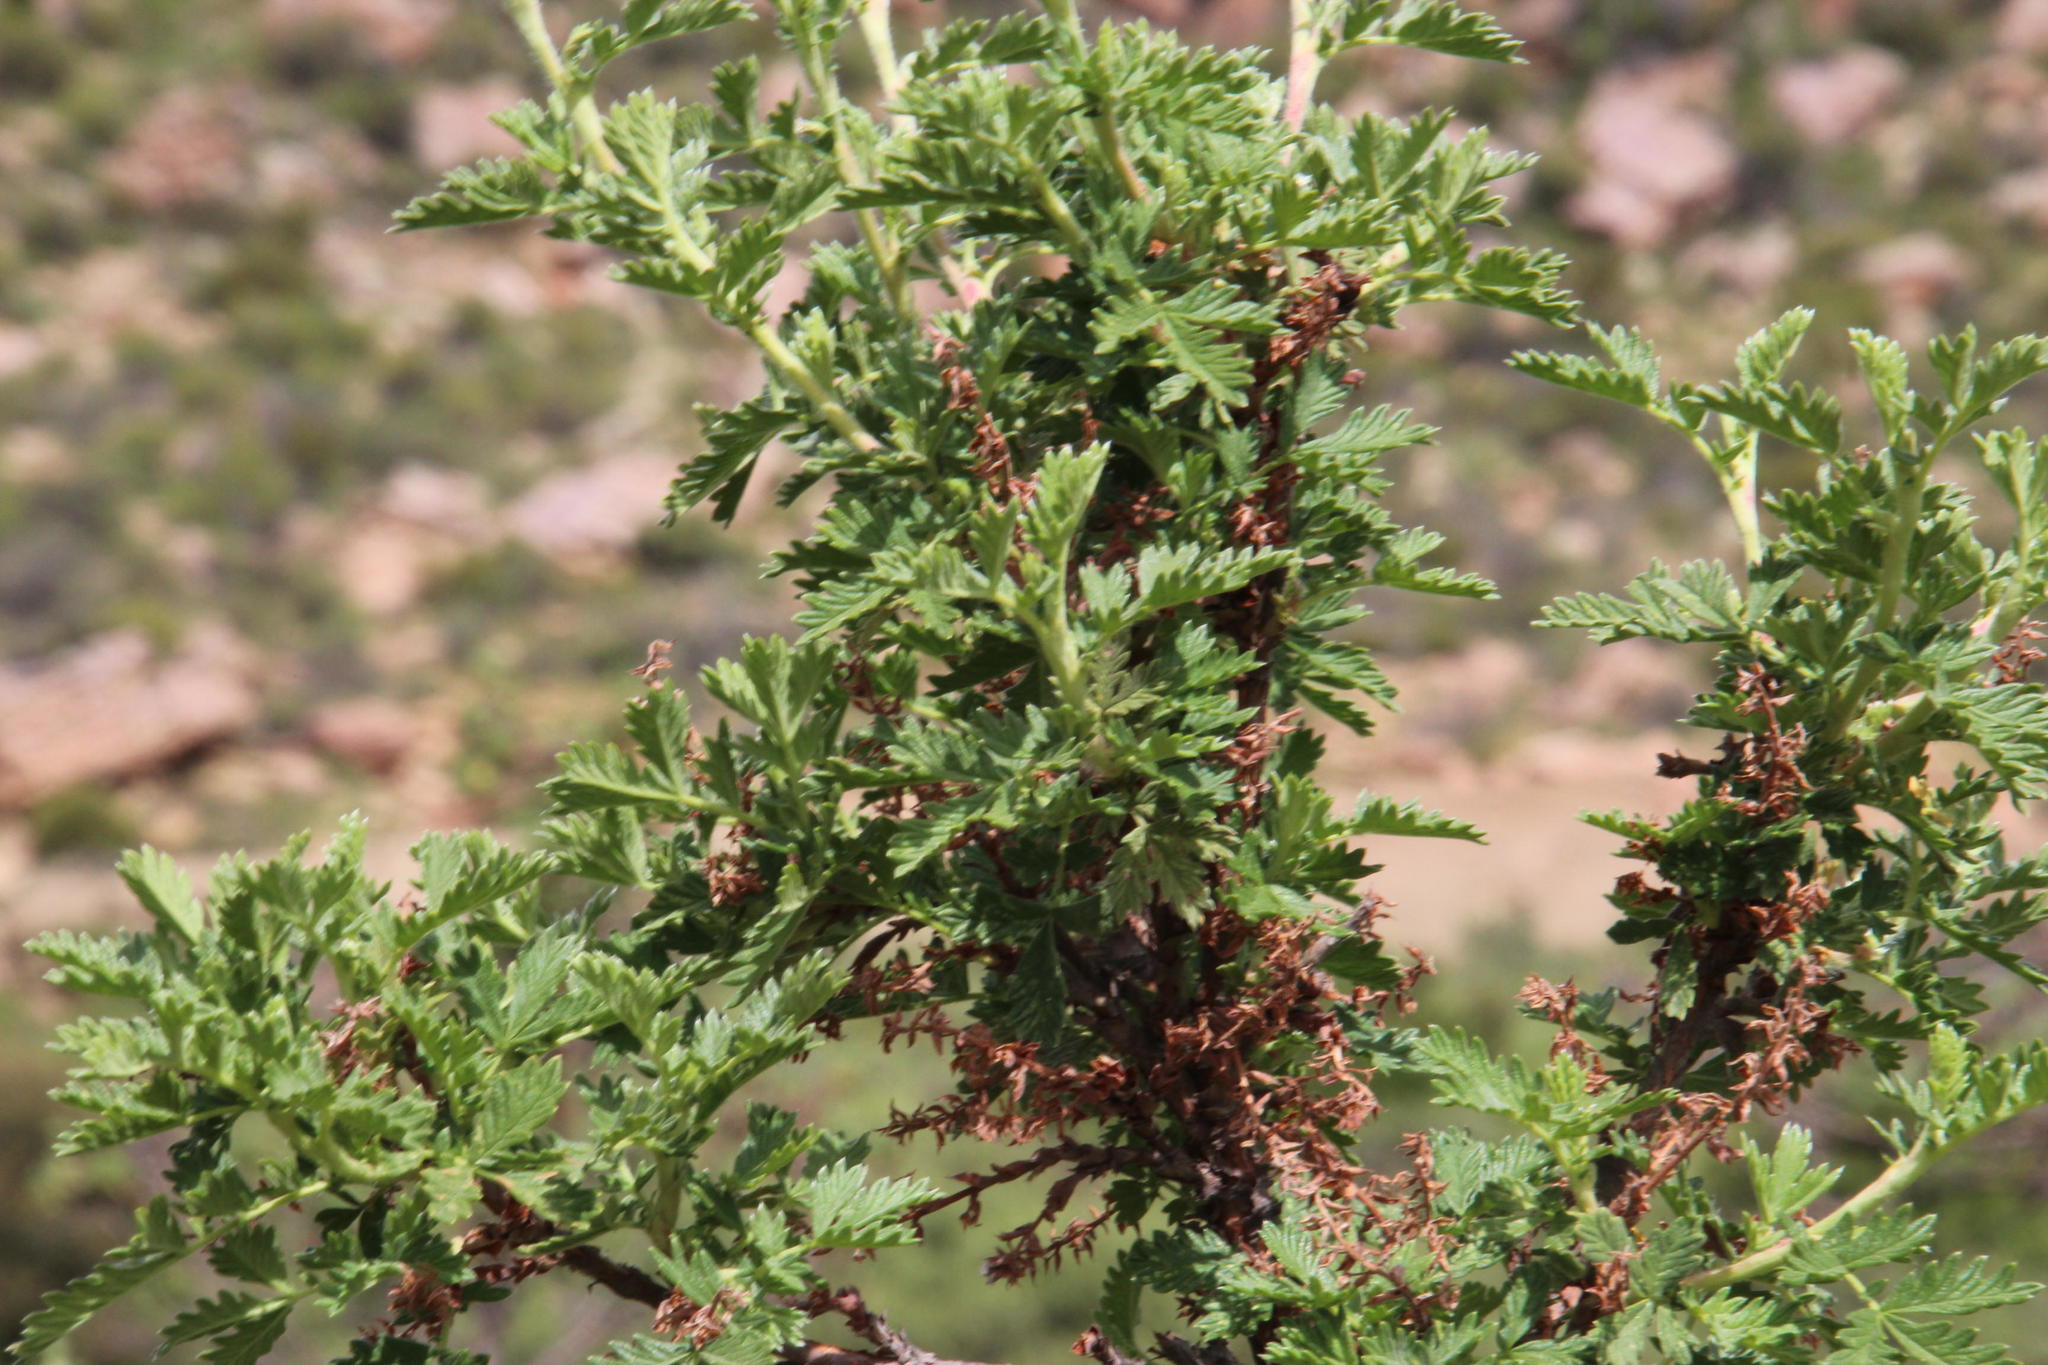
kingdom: Plantae
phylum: Tracheophyta
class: Magnoliopsida
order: Rosales
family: Rosaceae
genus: Leucosidea
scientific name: Leucosidea sericea
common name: Oldwood
